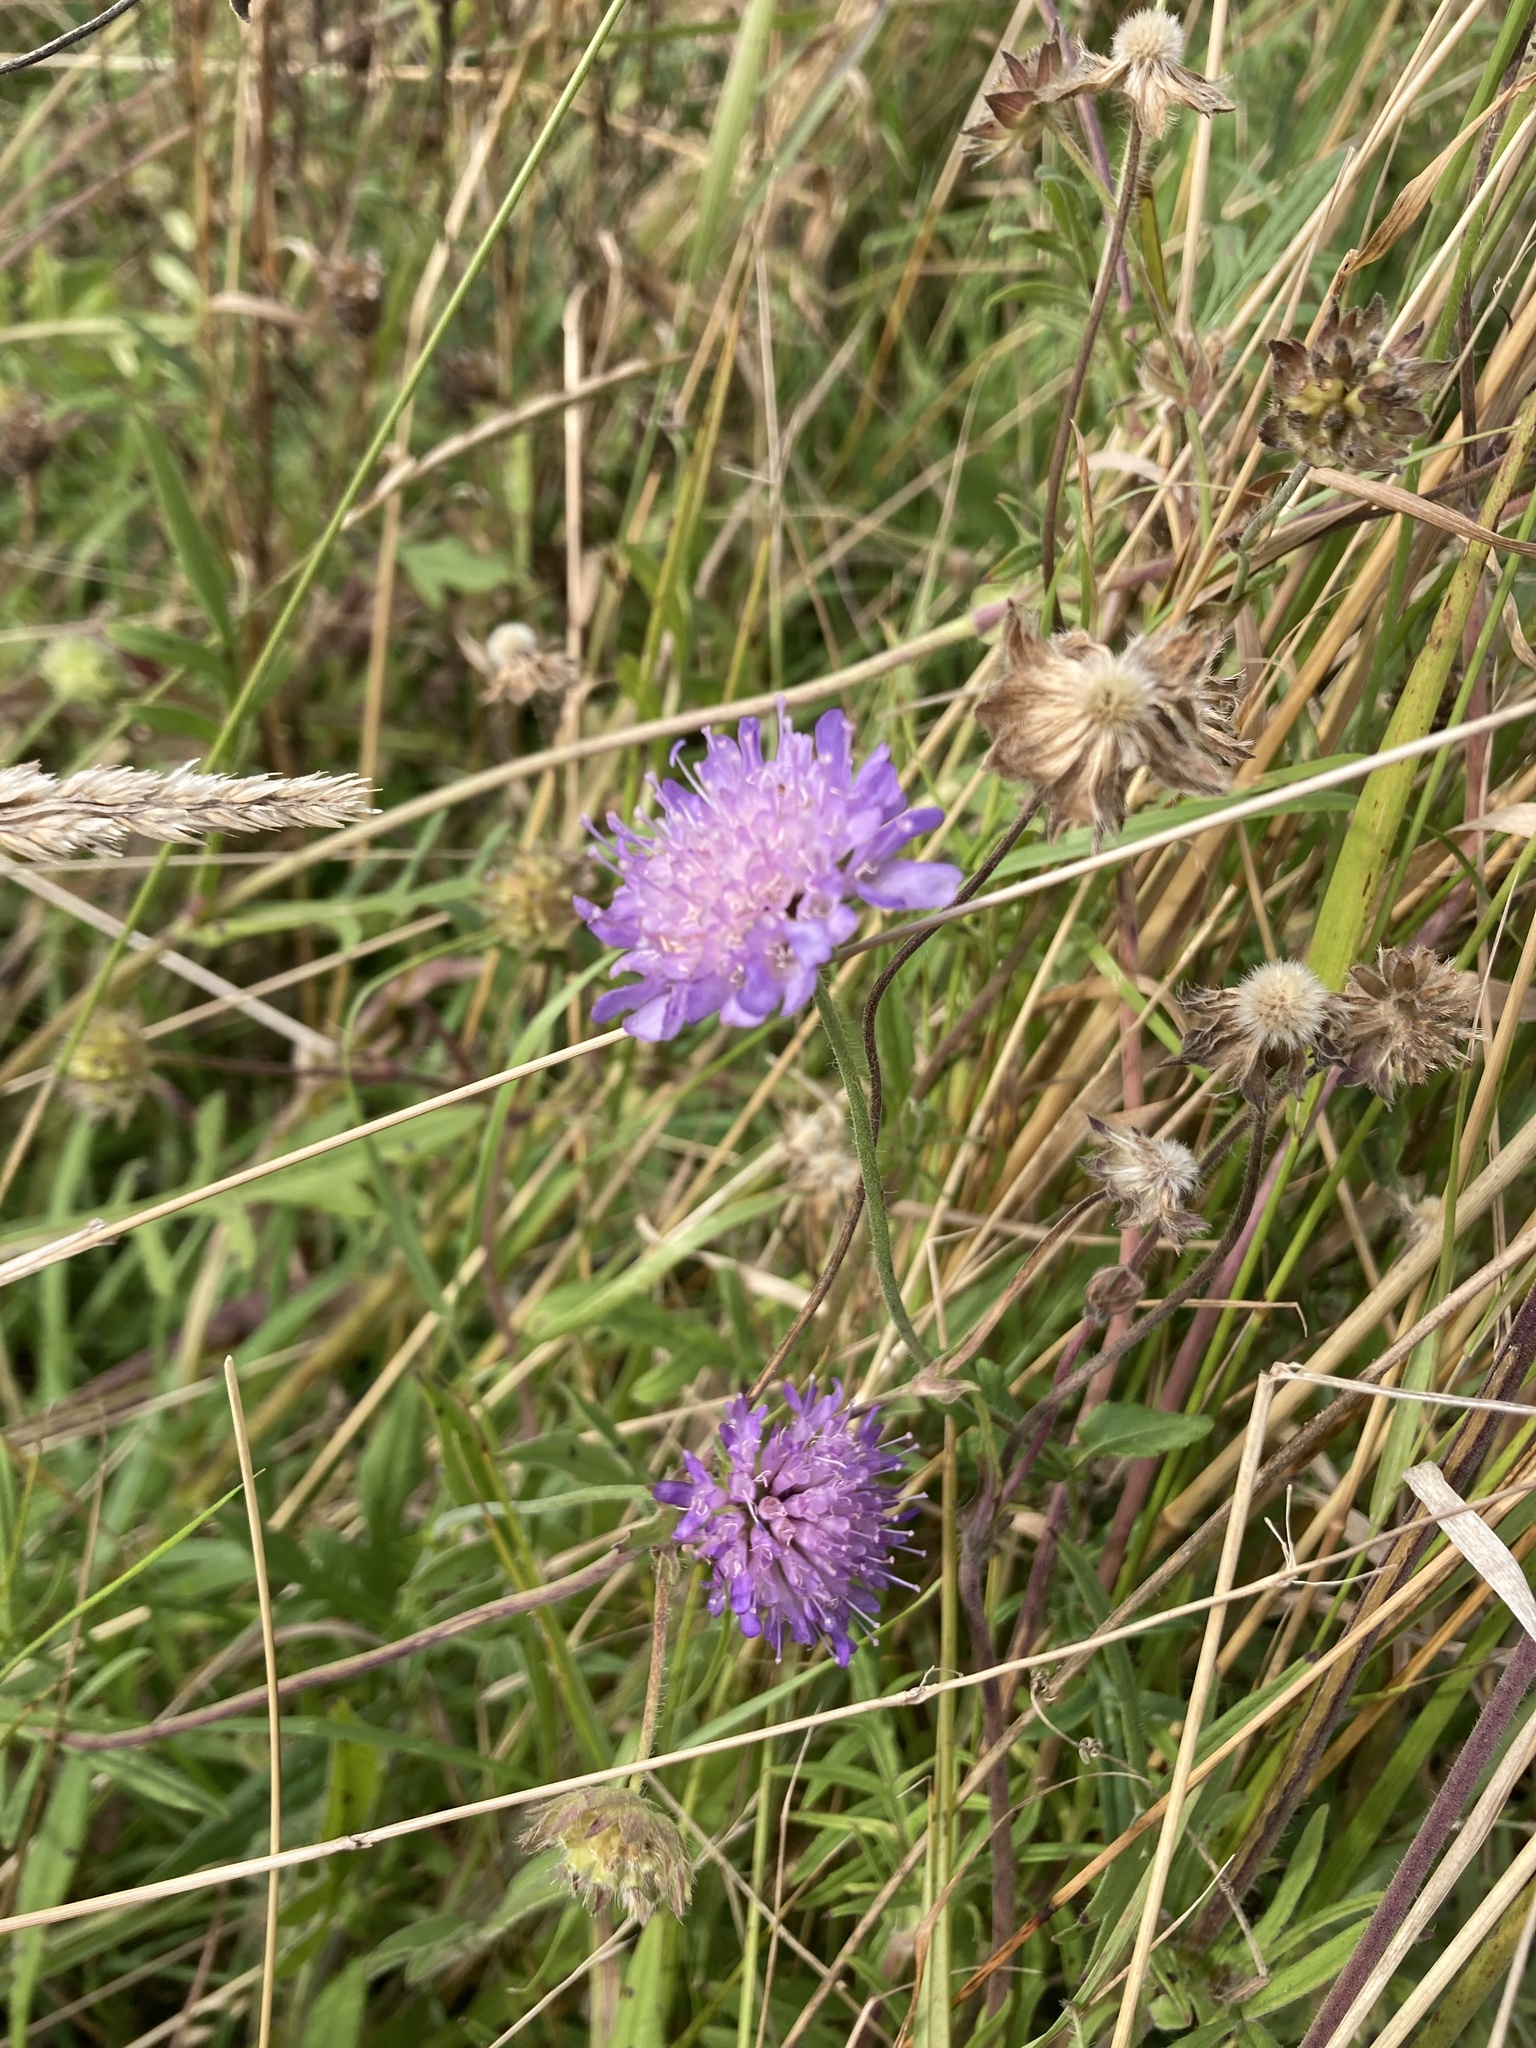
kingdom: Plantae
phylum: Tracheophyta
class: Magnoliopsida
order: Dipsacales
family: Caprifoliaceae
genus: Knautia
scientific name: Knautia arvensis
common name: Field scabiosa
